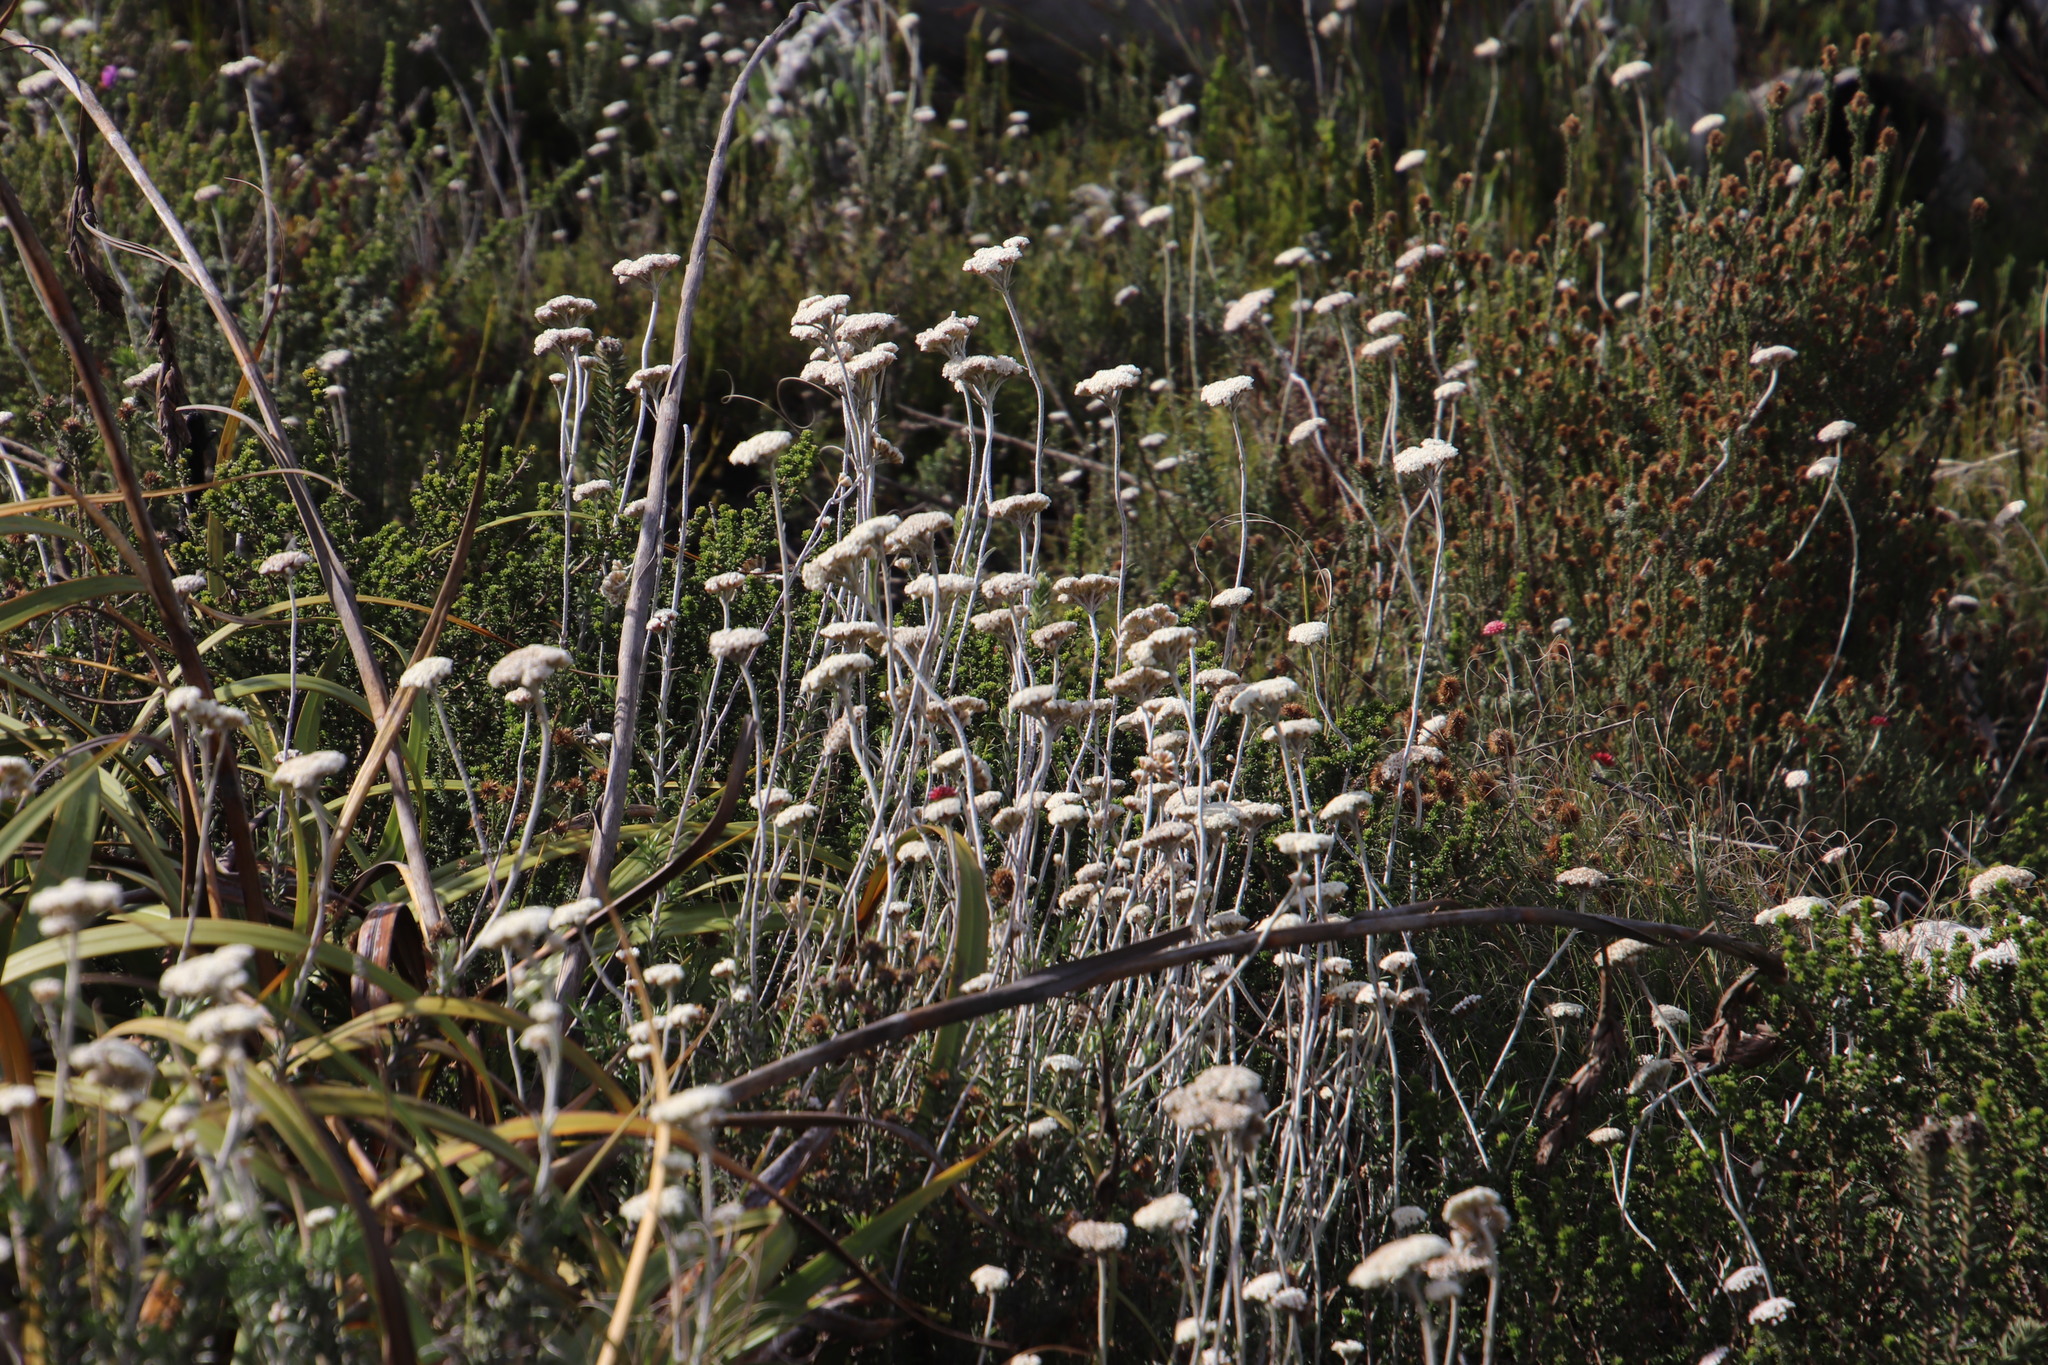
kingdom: Plantae
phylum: Tracheophyta
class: Magnoliopsida
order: Asterales
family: Asteraceae
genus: Anaxeton
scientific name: Anaxeton arborescens
